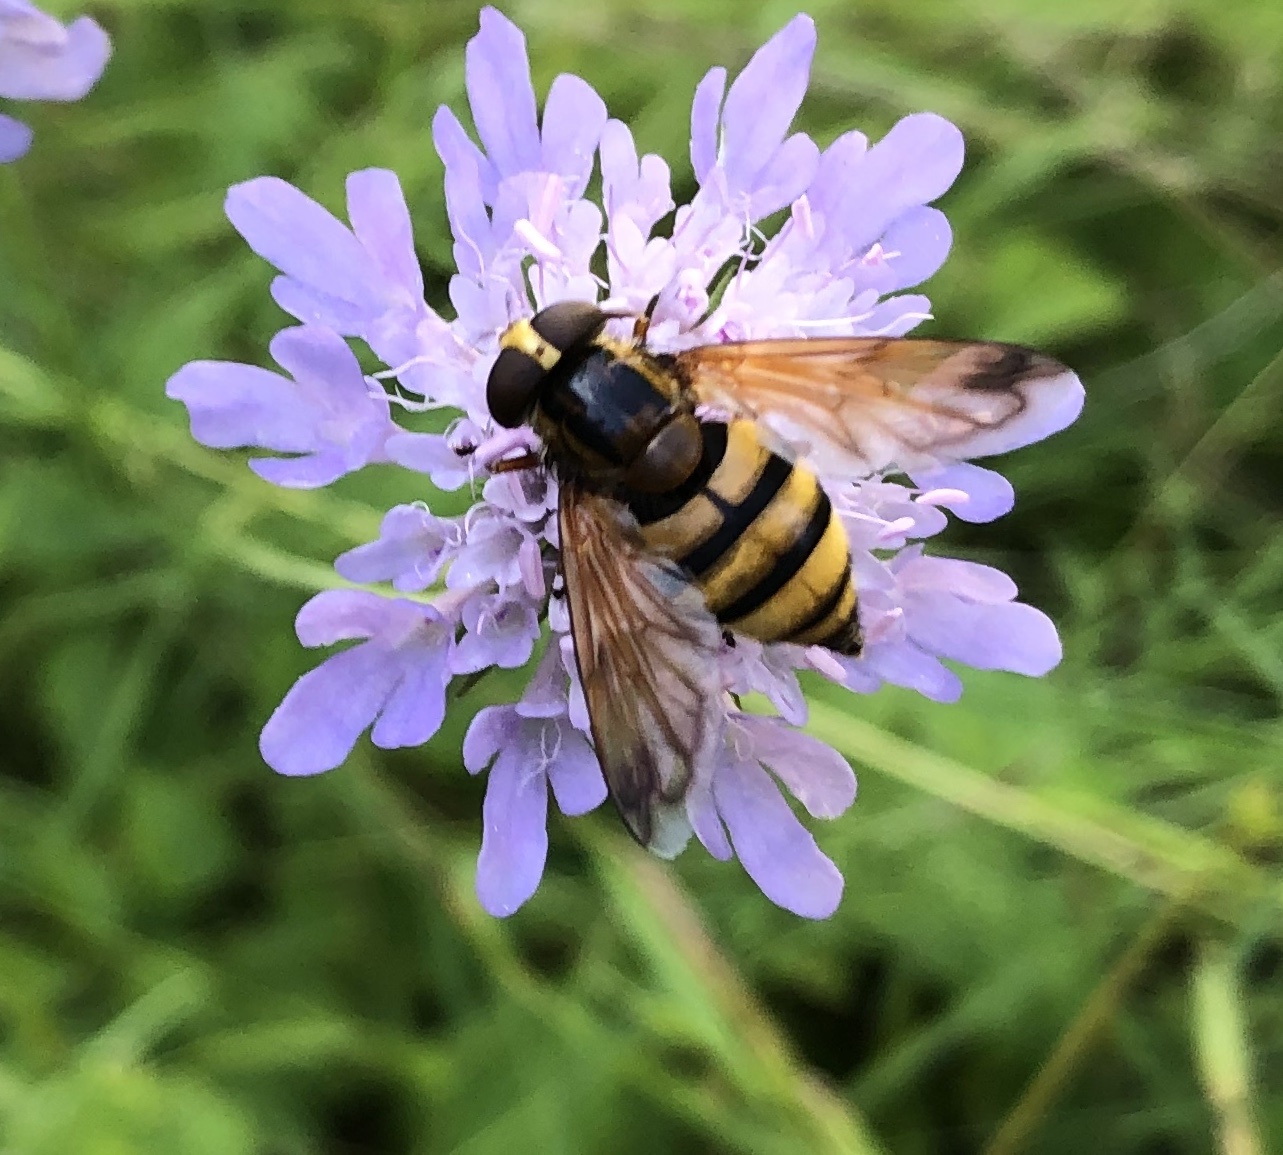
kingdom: Animalia
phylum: Arthropoda
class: Insecta
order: Diptera
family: Syrphidae
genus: Volucella
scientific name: Volucella inanis
